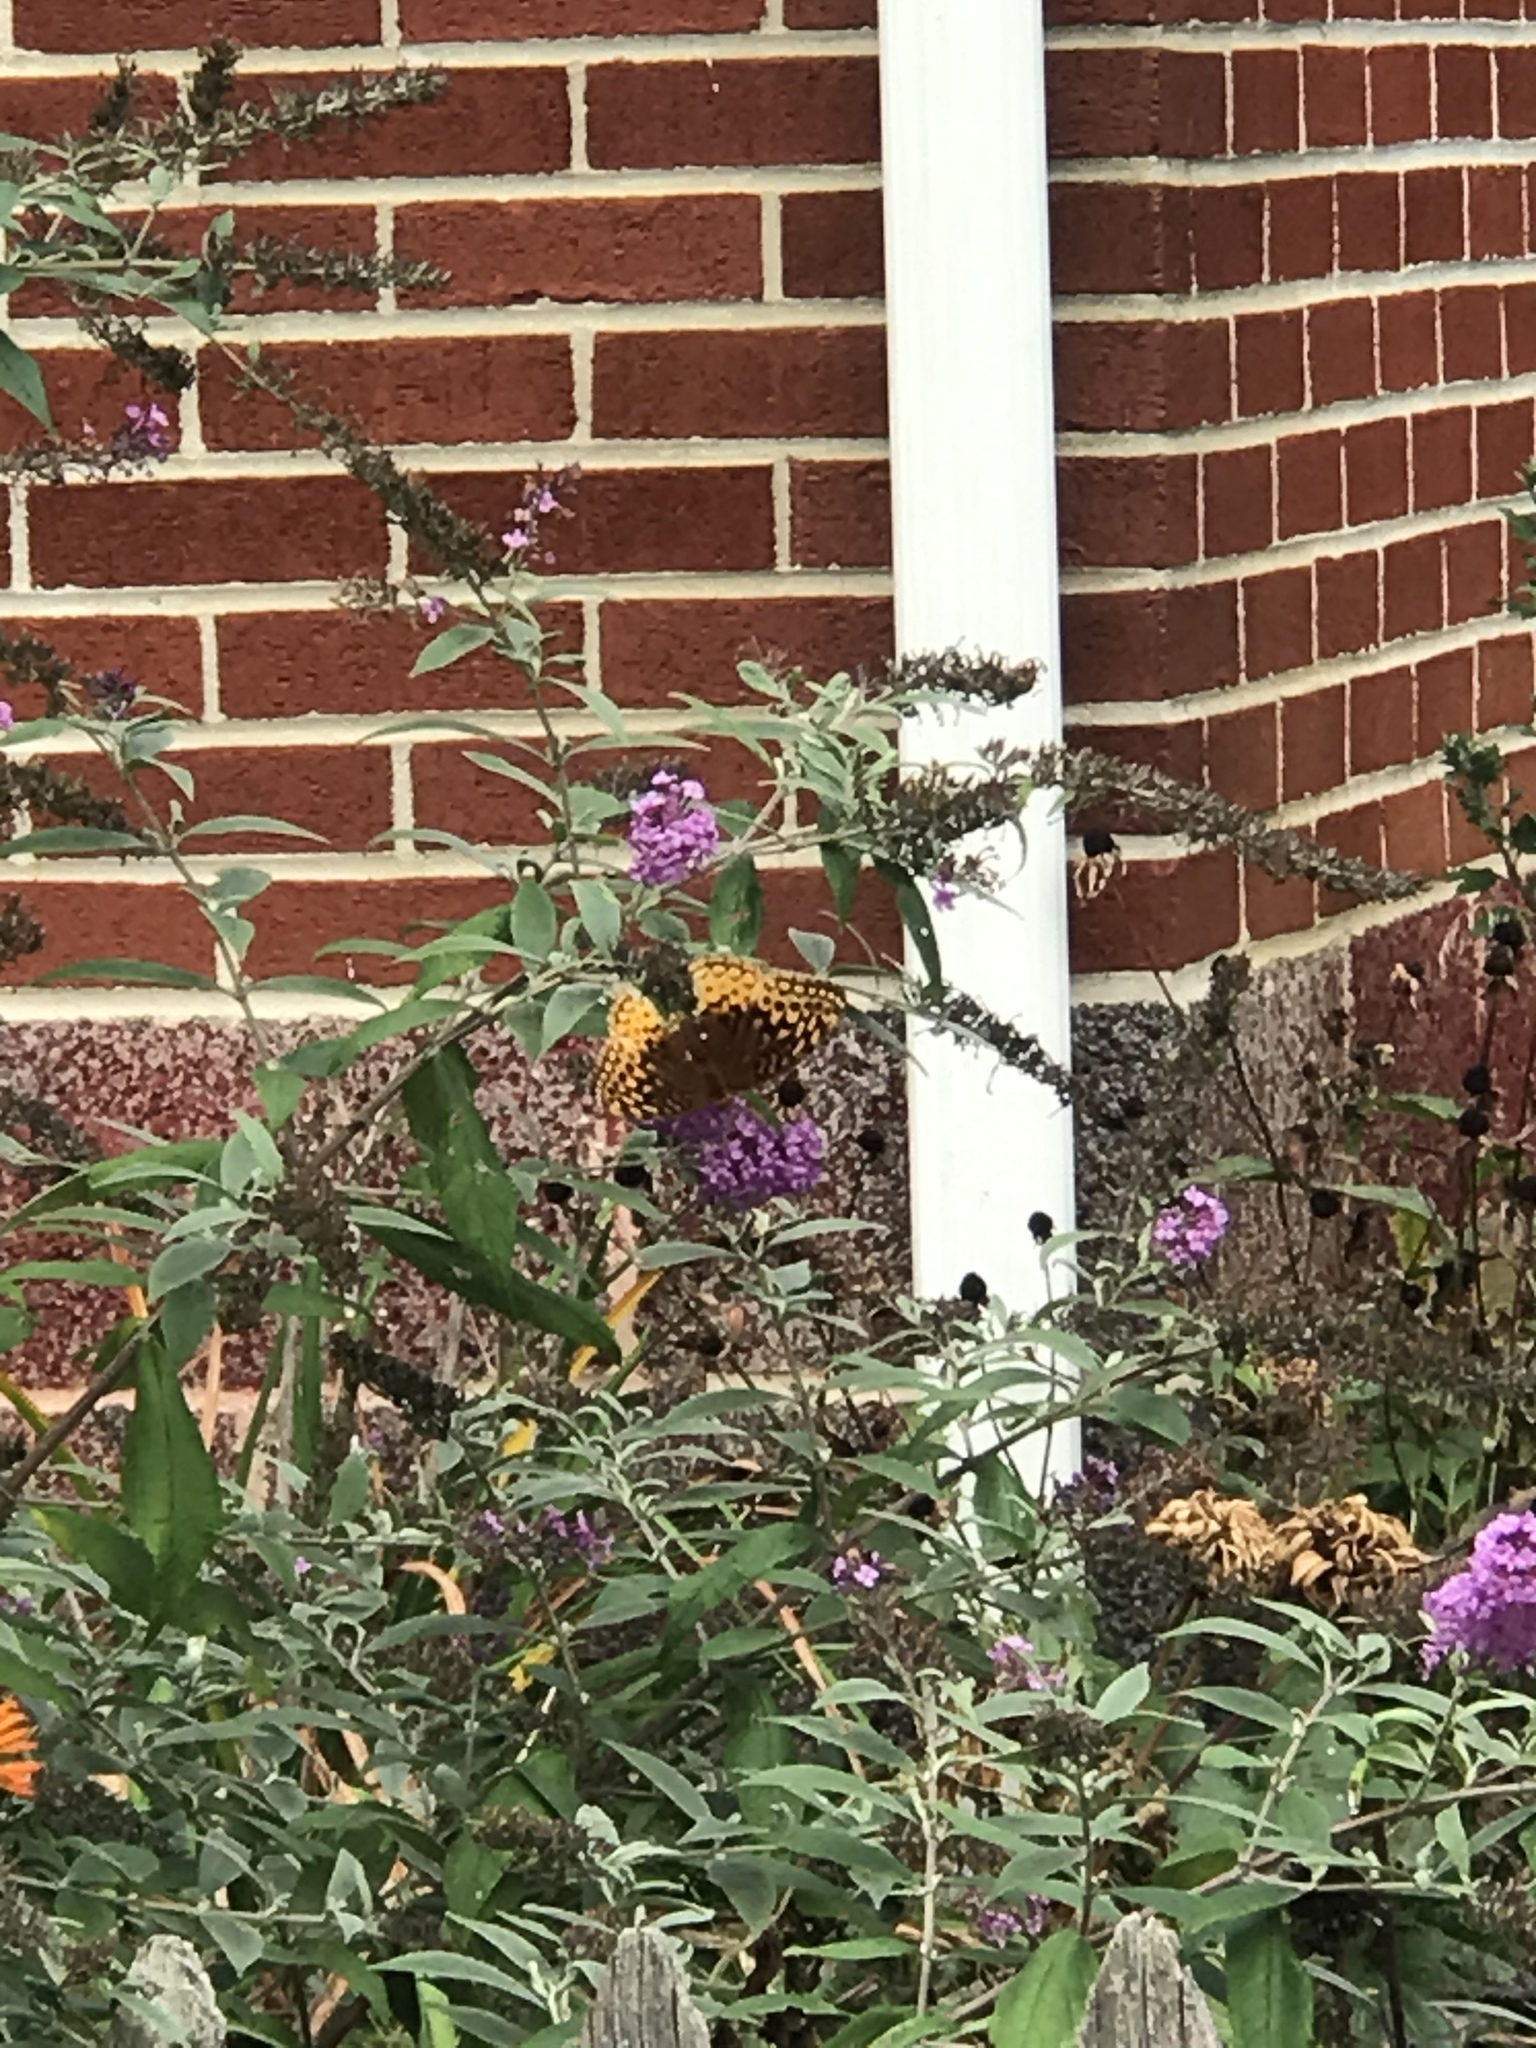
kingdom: Animalia
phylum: Arthropoda
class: Insecta
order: Lepidoptera
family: Nymphalidae
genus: Speyeria
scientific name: Speyeria cybele
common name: Great spangled fritillary
